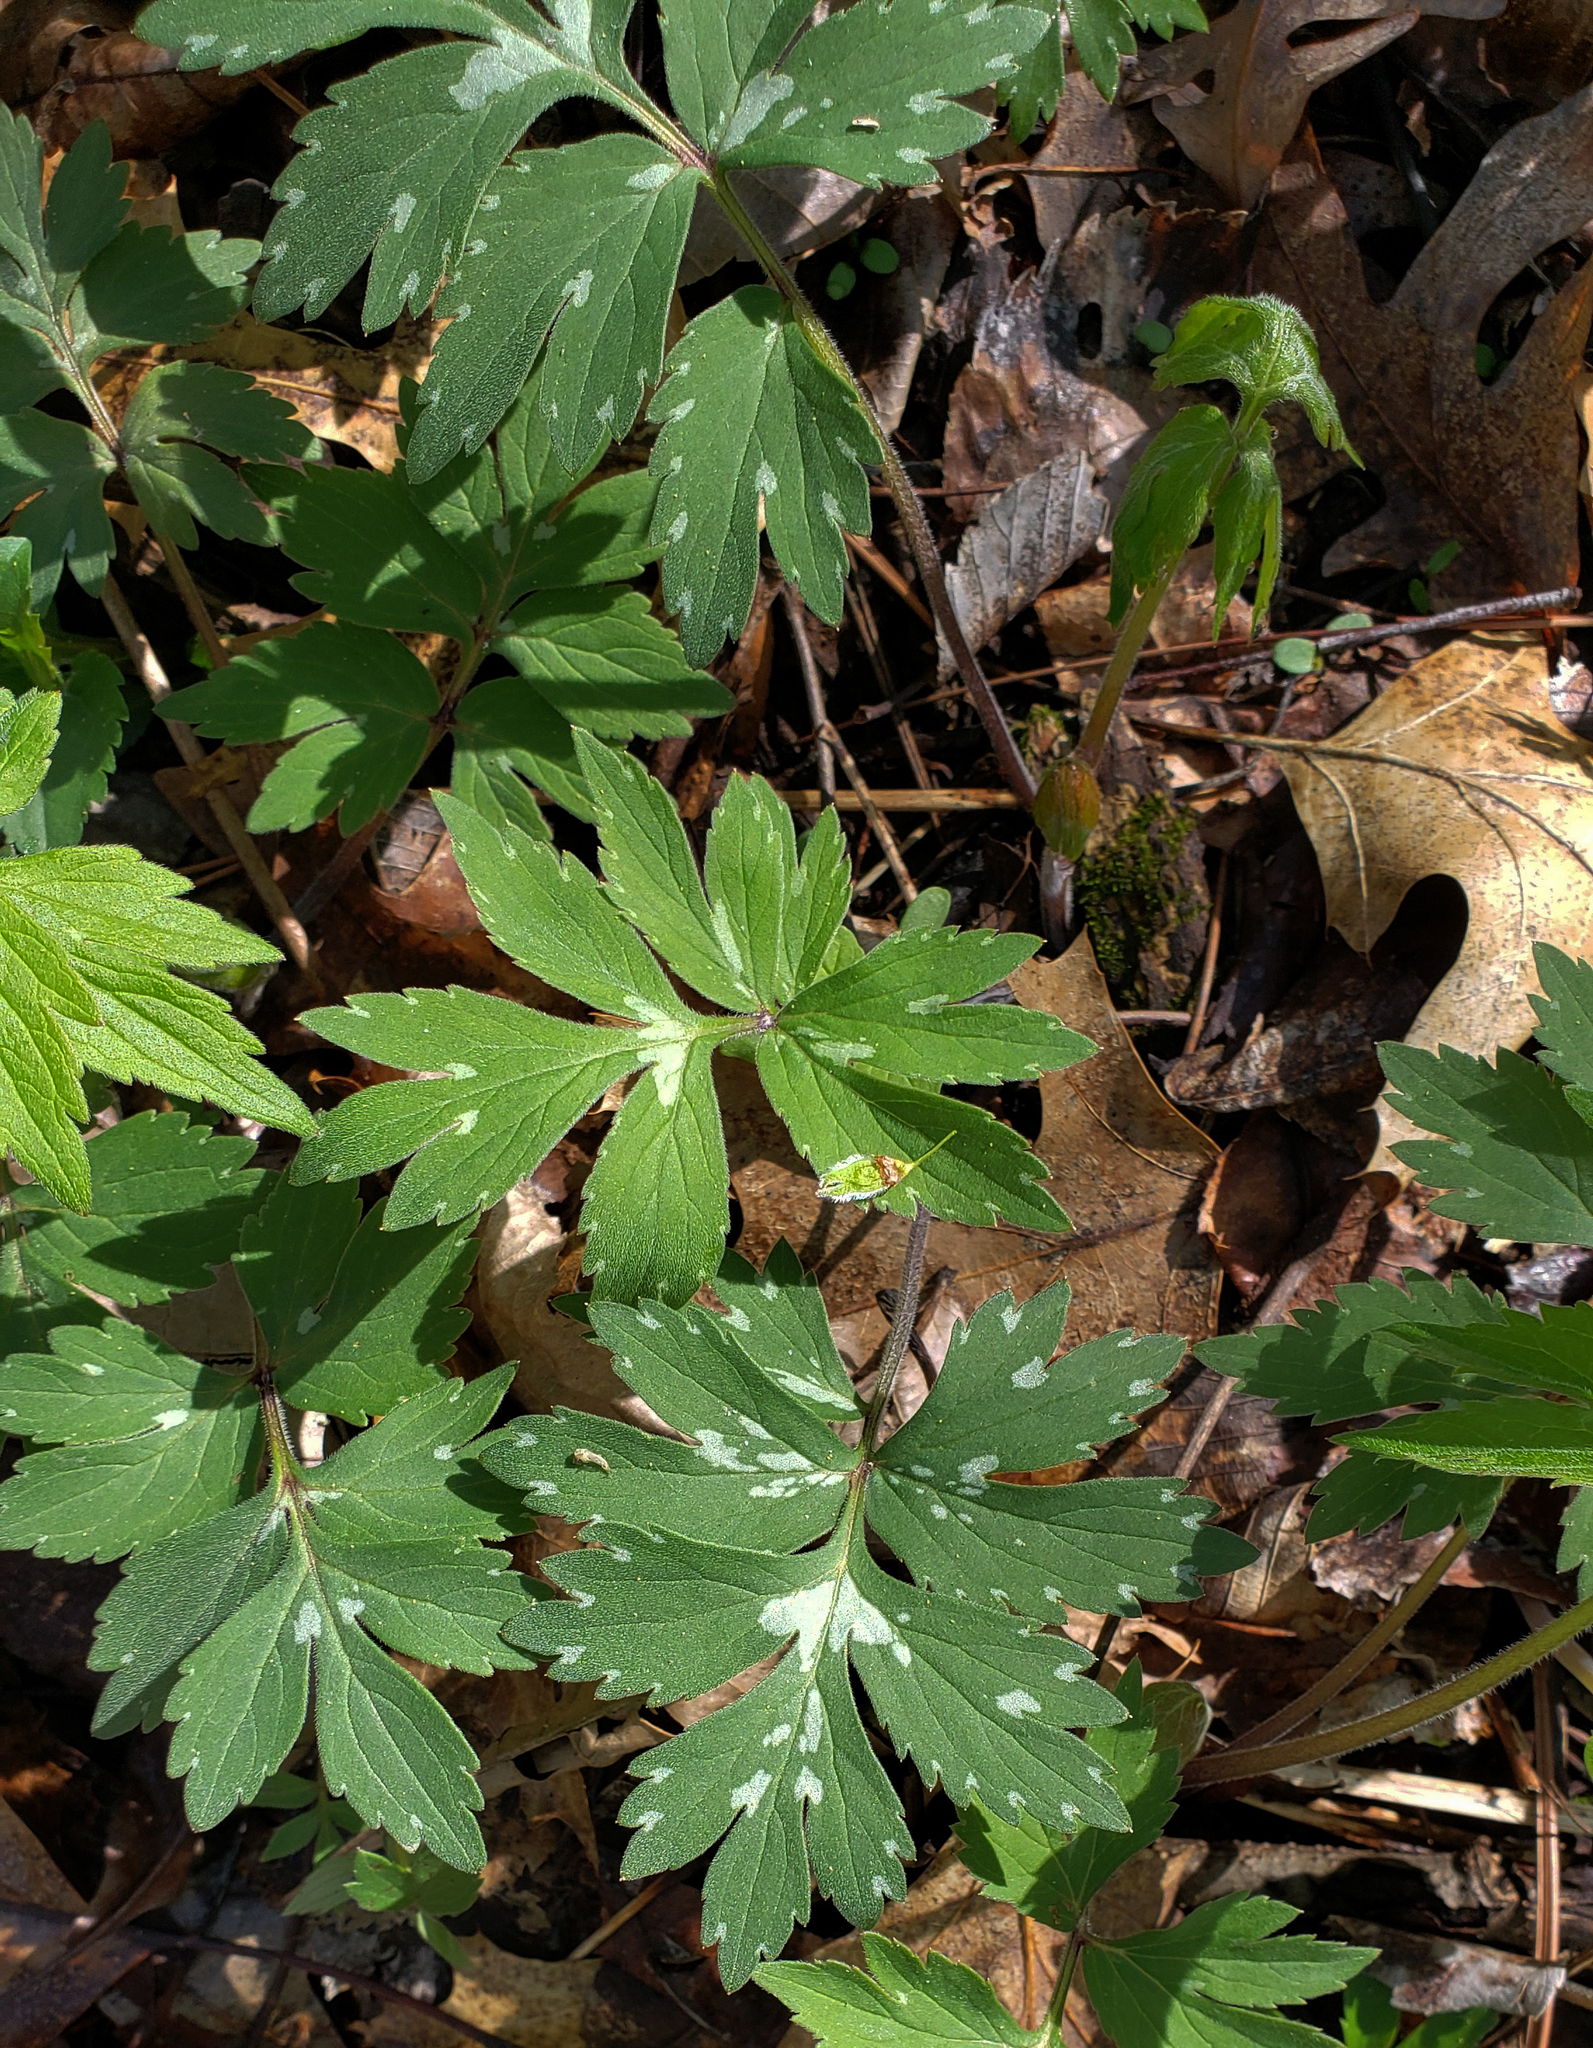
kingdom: Plantae
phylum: Tracheophyta
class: Magnoliopsida
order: Boraginales
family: Hydrophyllaceae
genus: Hydrophyllum
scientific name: Hydrophyllum virginianum
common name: Virginia waterleaf
